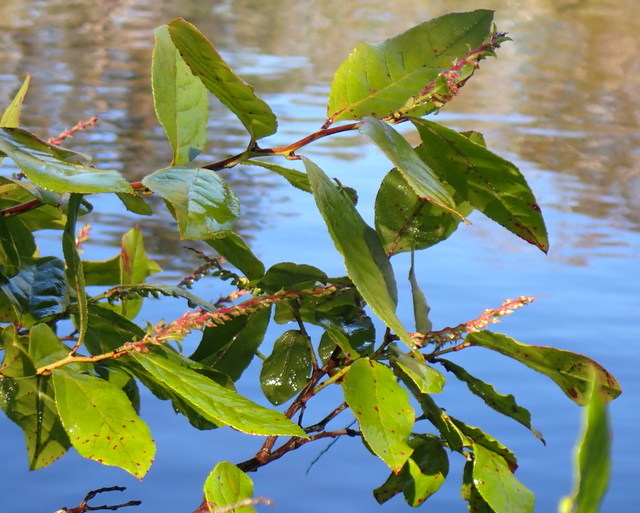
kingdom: Plantae
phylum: Tracheophyta
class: Magnoliopsida
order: Ericales
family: Ericaceae
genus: Eubotrys
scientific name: Eubotrys racemosa
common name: Fetterbush
